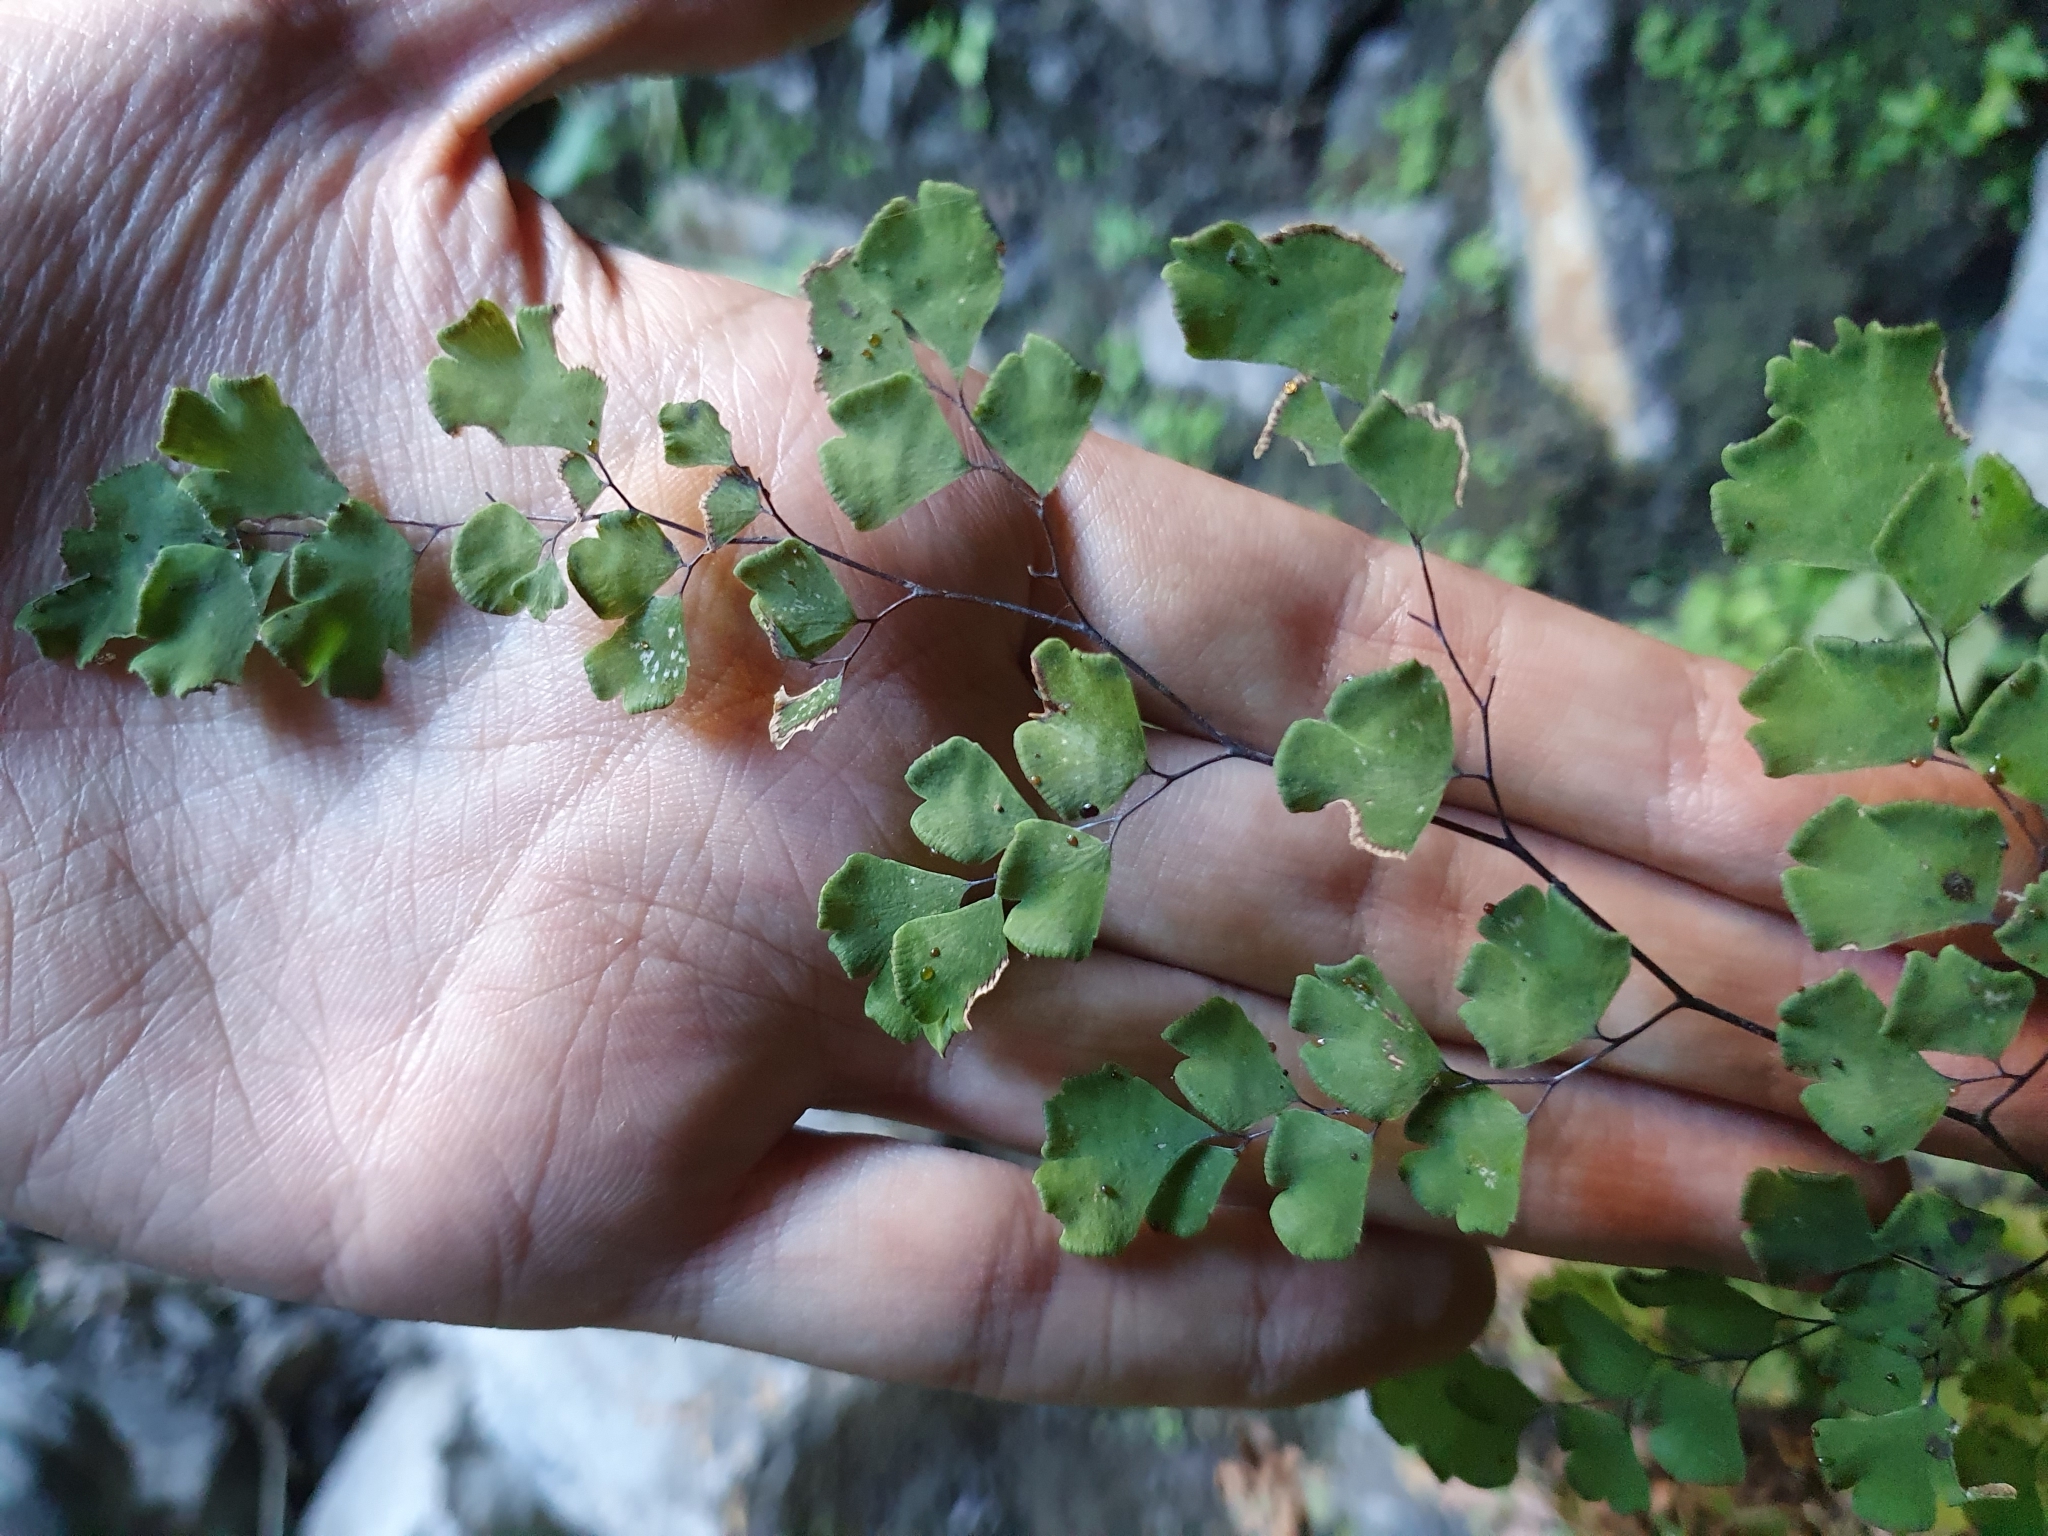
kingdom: Plantae
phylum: Tracheophyta
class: Polypodiopsida
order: Polypodiales
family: Pteridaceae
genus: Adiantum
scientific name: Adiantum capillus-veneris
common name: Maidenhair fern
